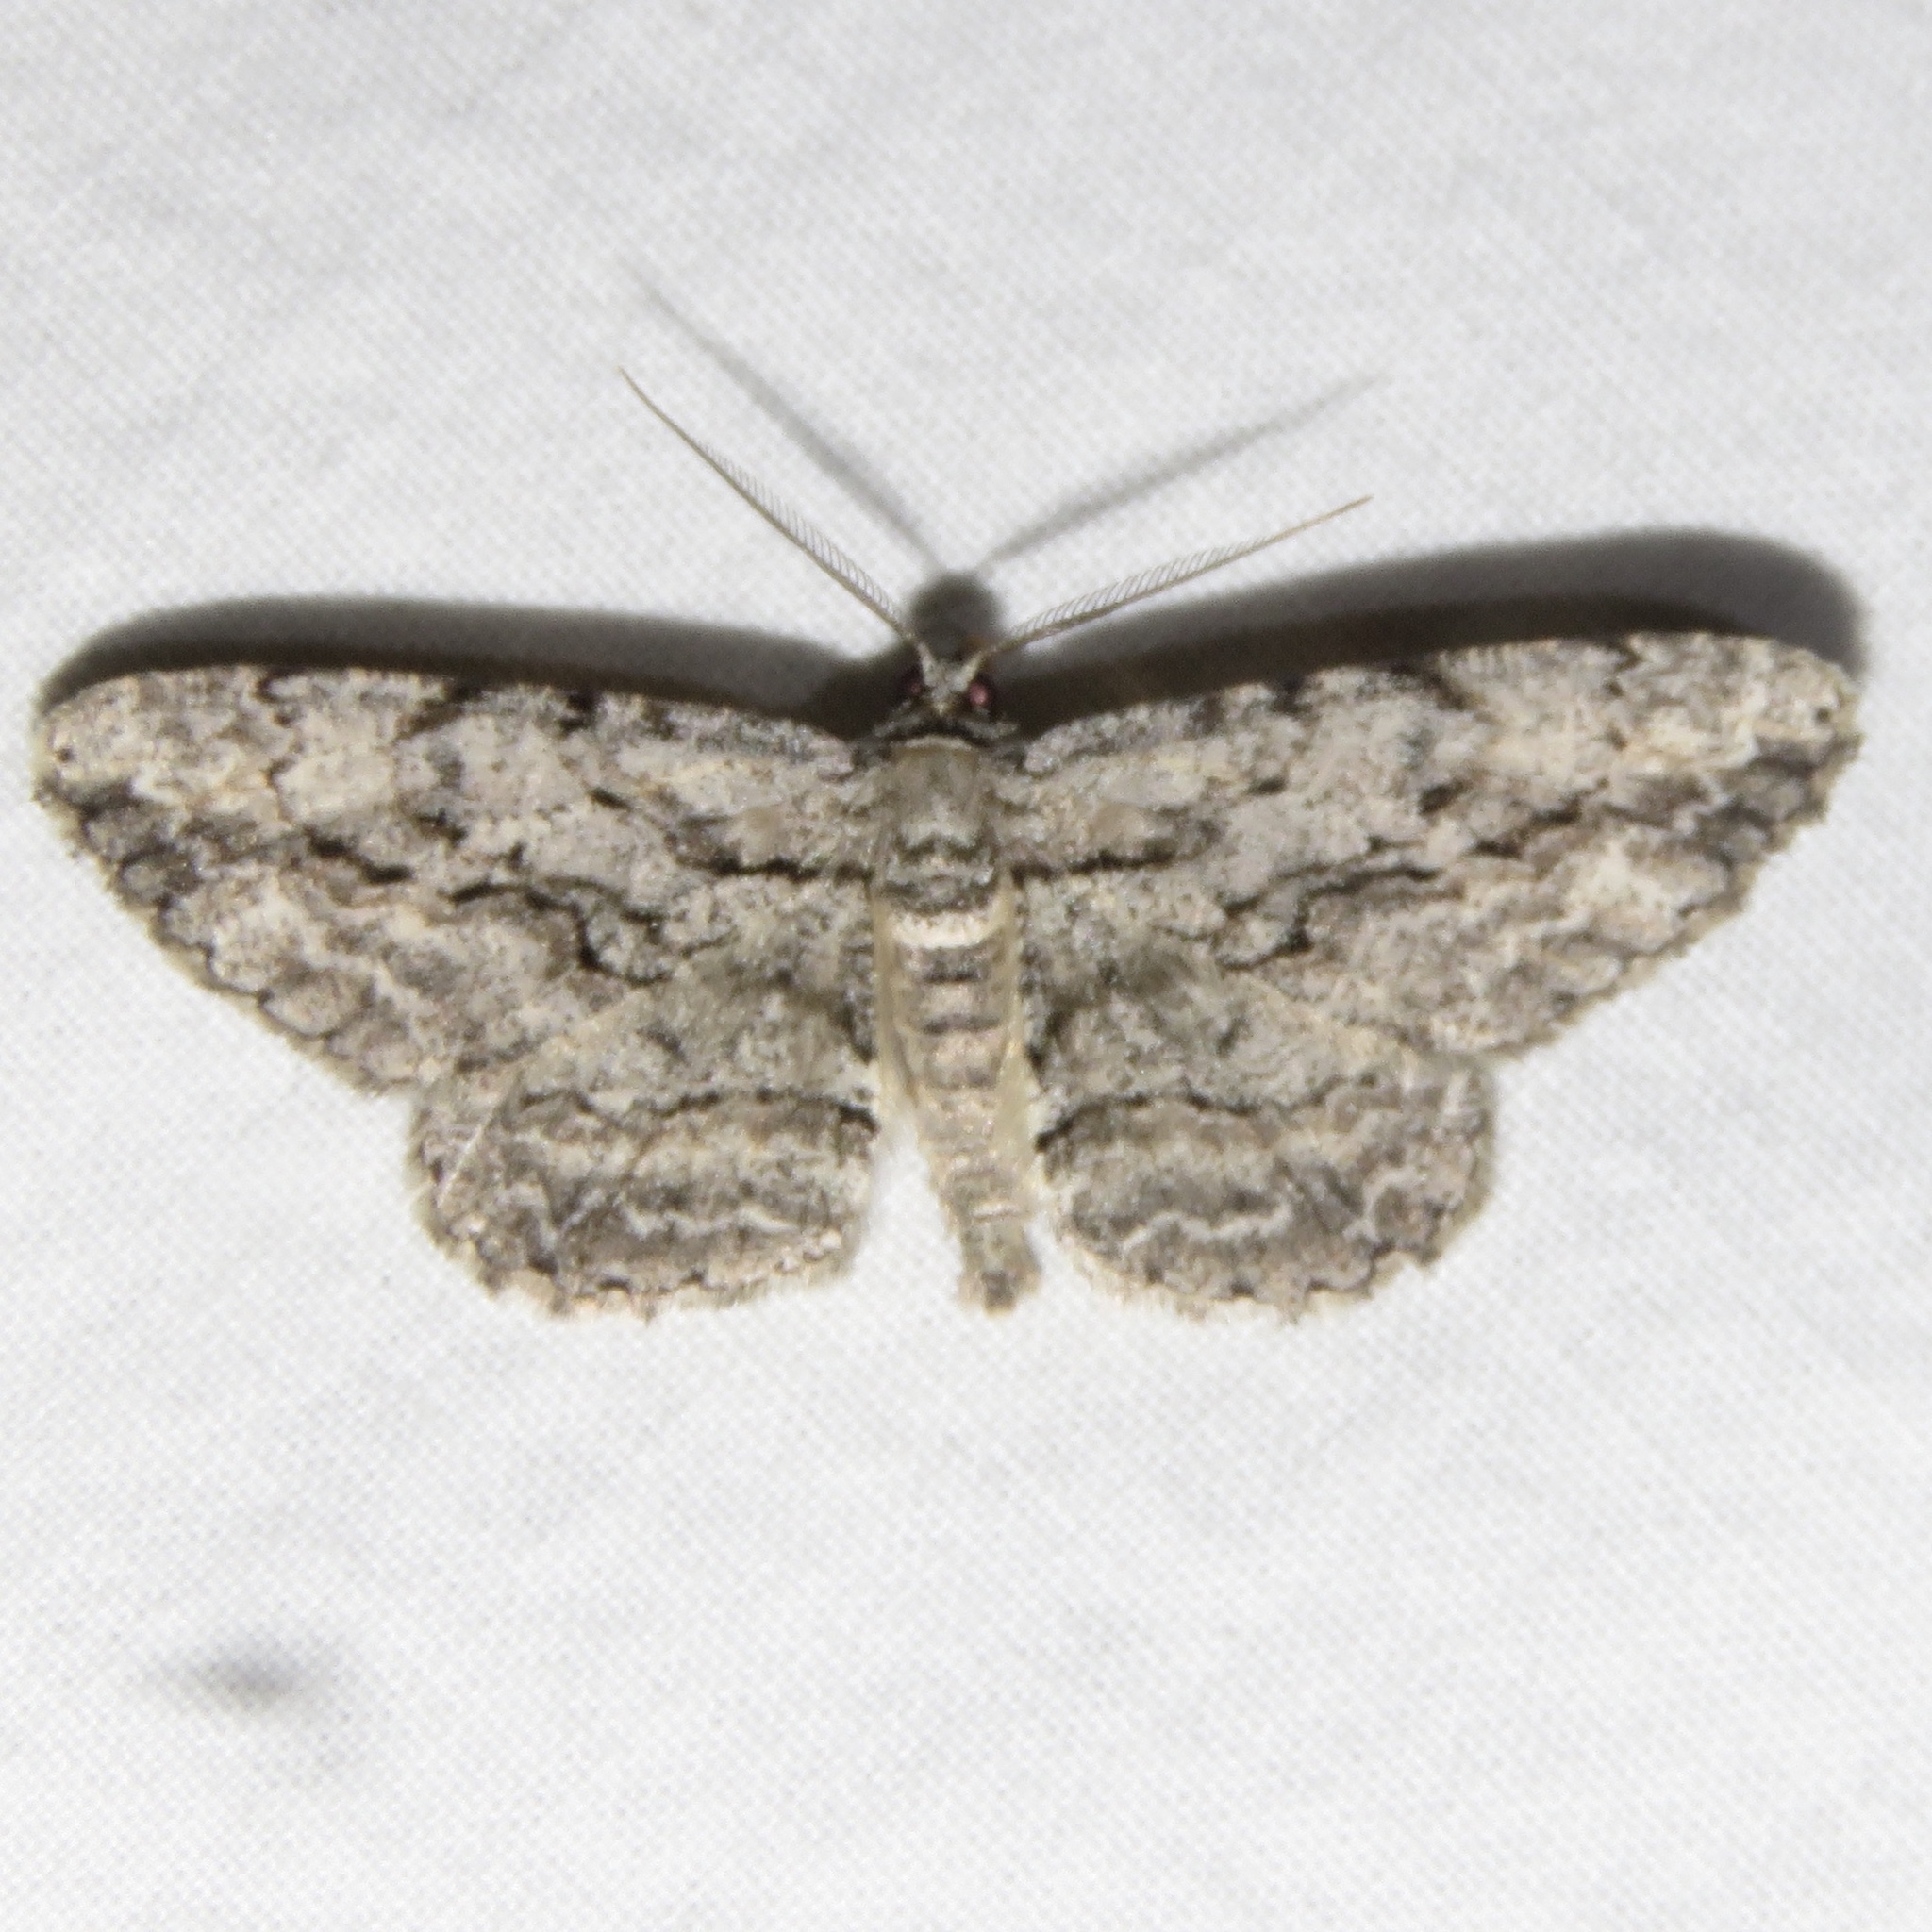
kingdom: Animalia
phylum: Arthropoda
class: Insecta
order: Lepidoptera
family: Geometridae
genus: Anavitrinella
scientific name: Anavitrinella pampinaria
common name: Common gray
